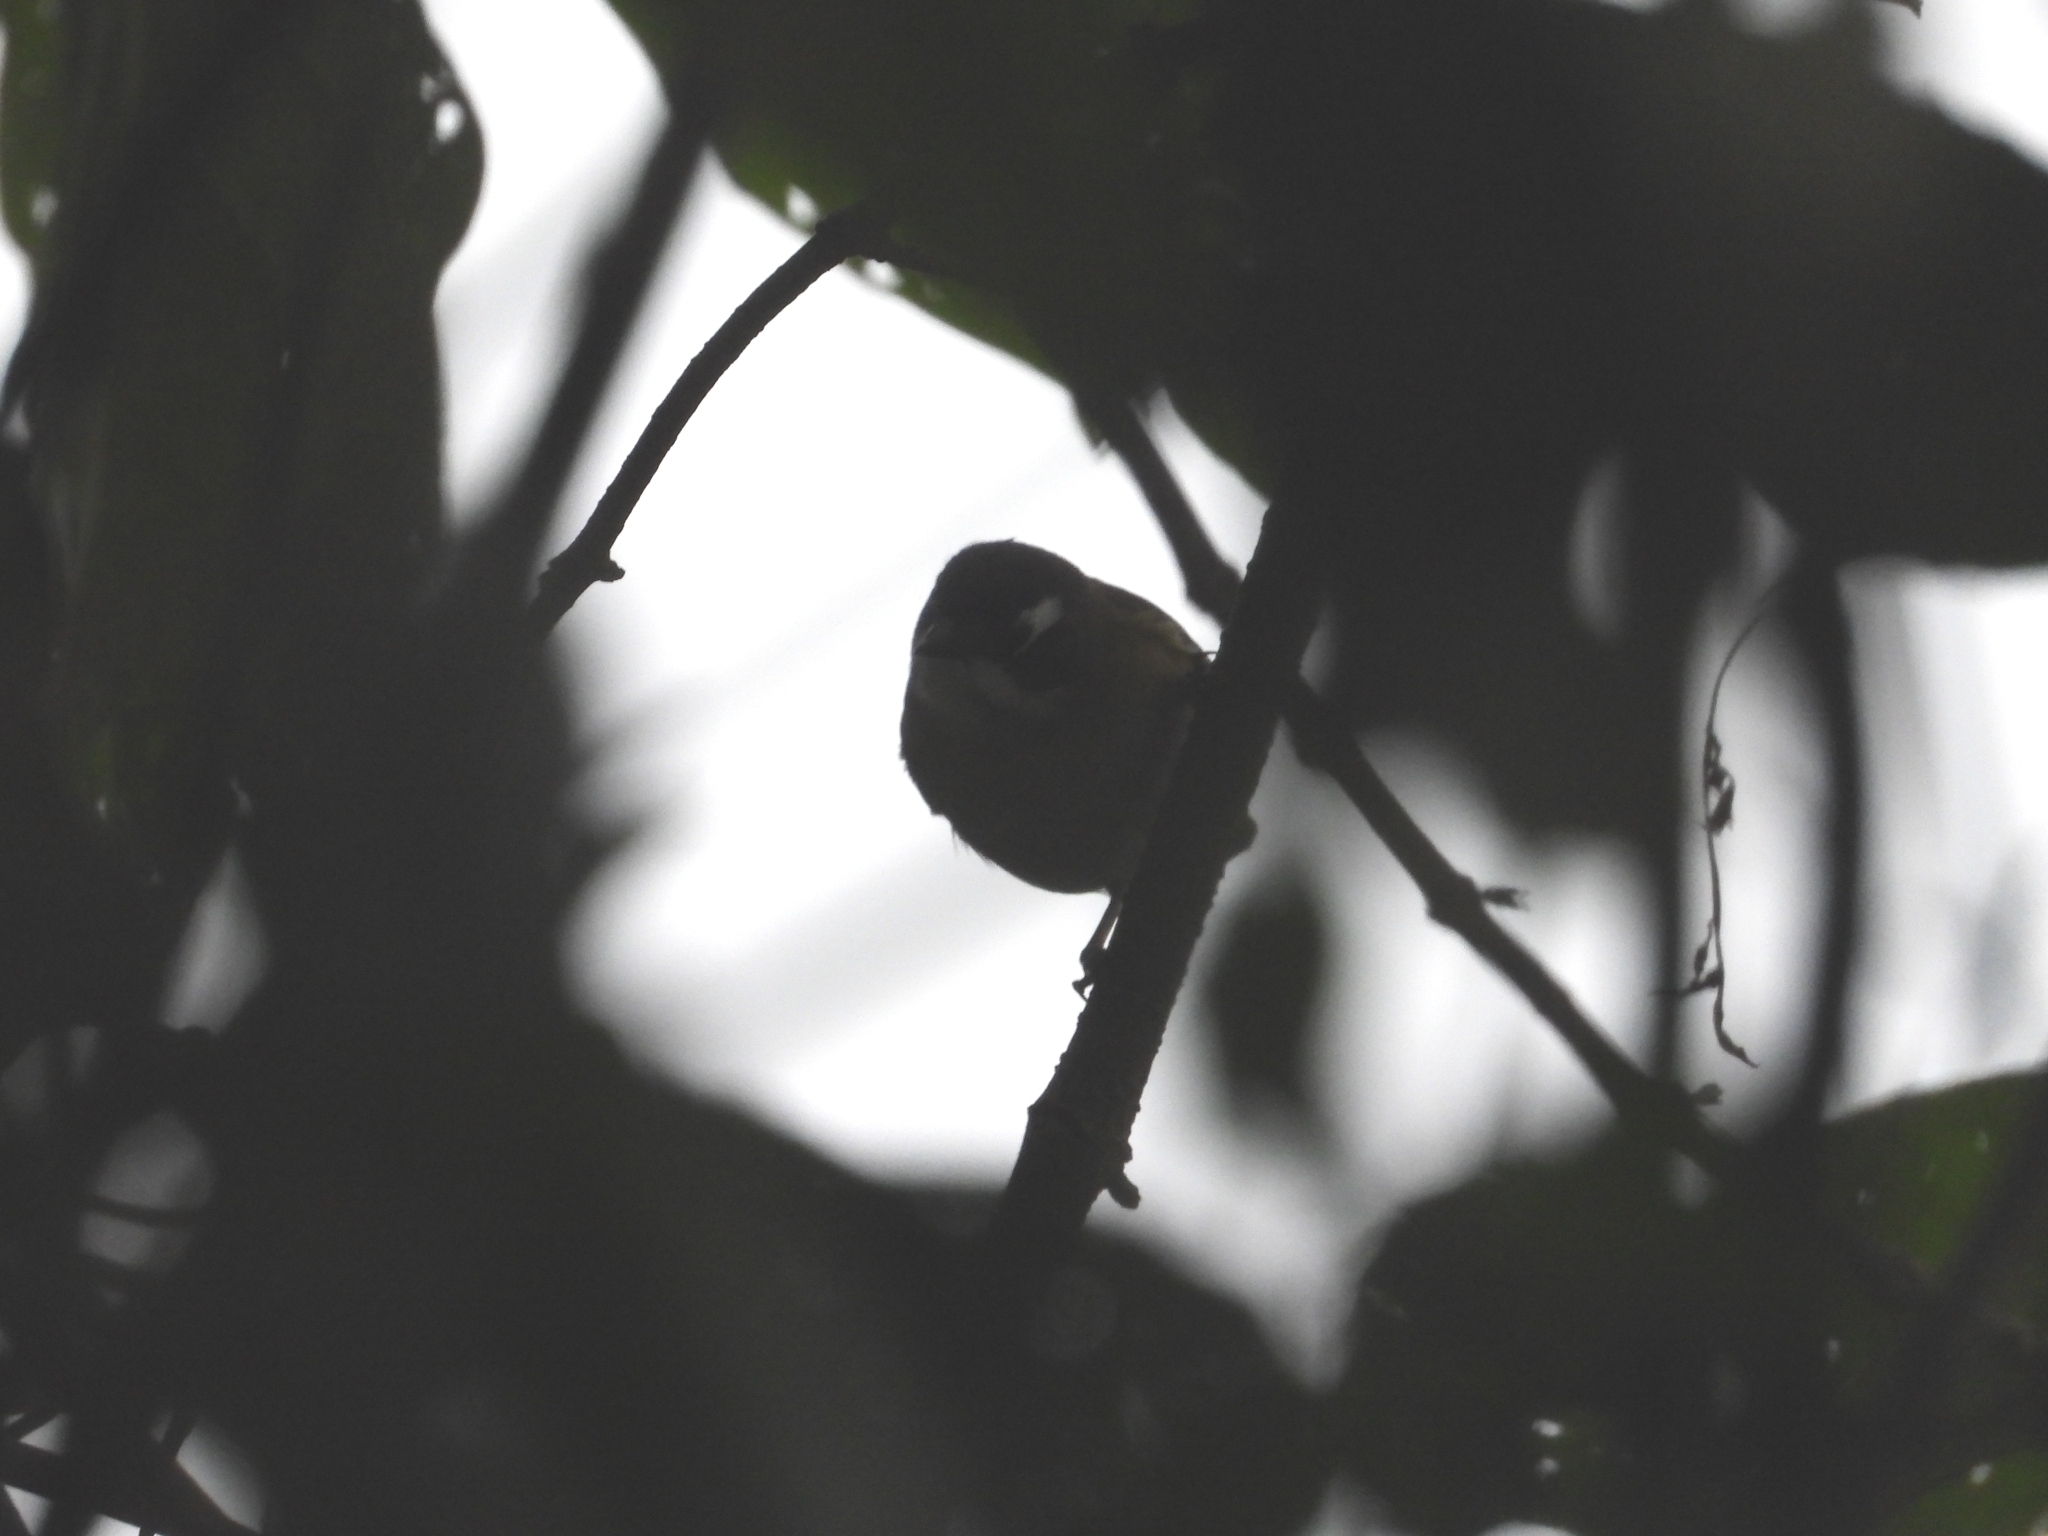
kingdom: Animalia
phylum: Chordata
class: Aves
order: Passeriformes
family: Passerellidae
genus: Chlorospingus
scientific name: Chlorospingus flavopectus
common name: Common chlorospingus
